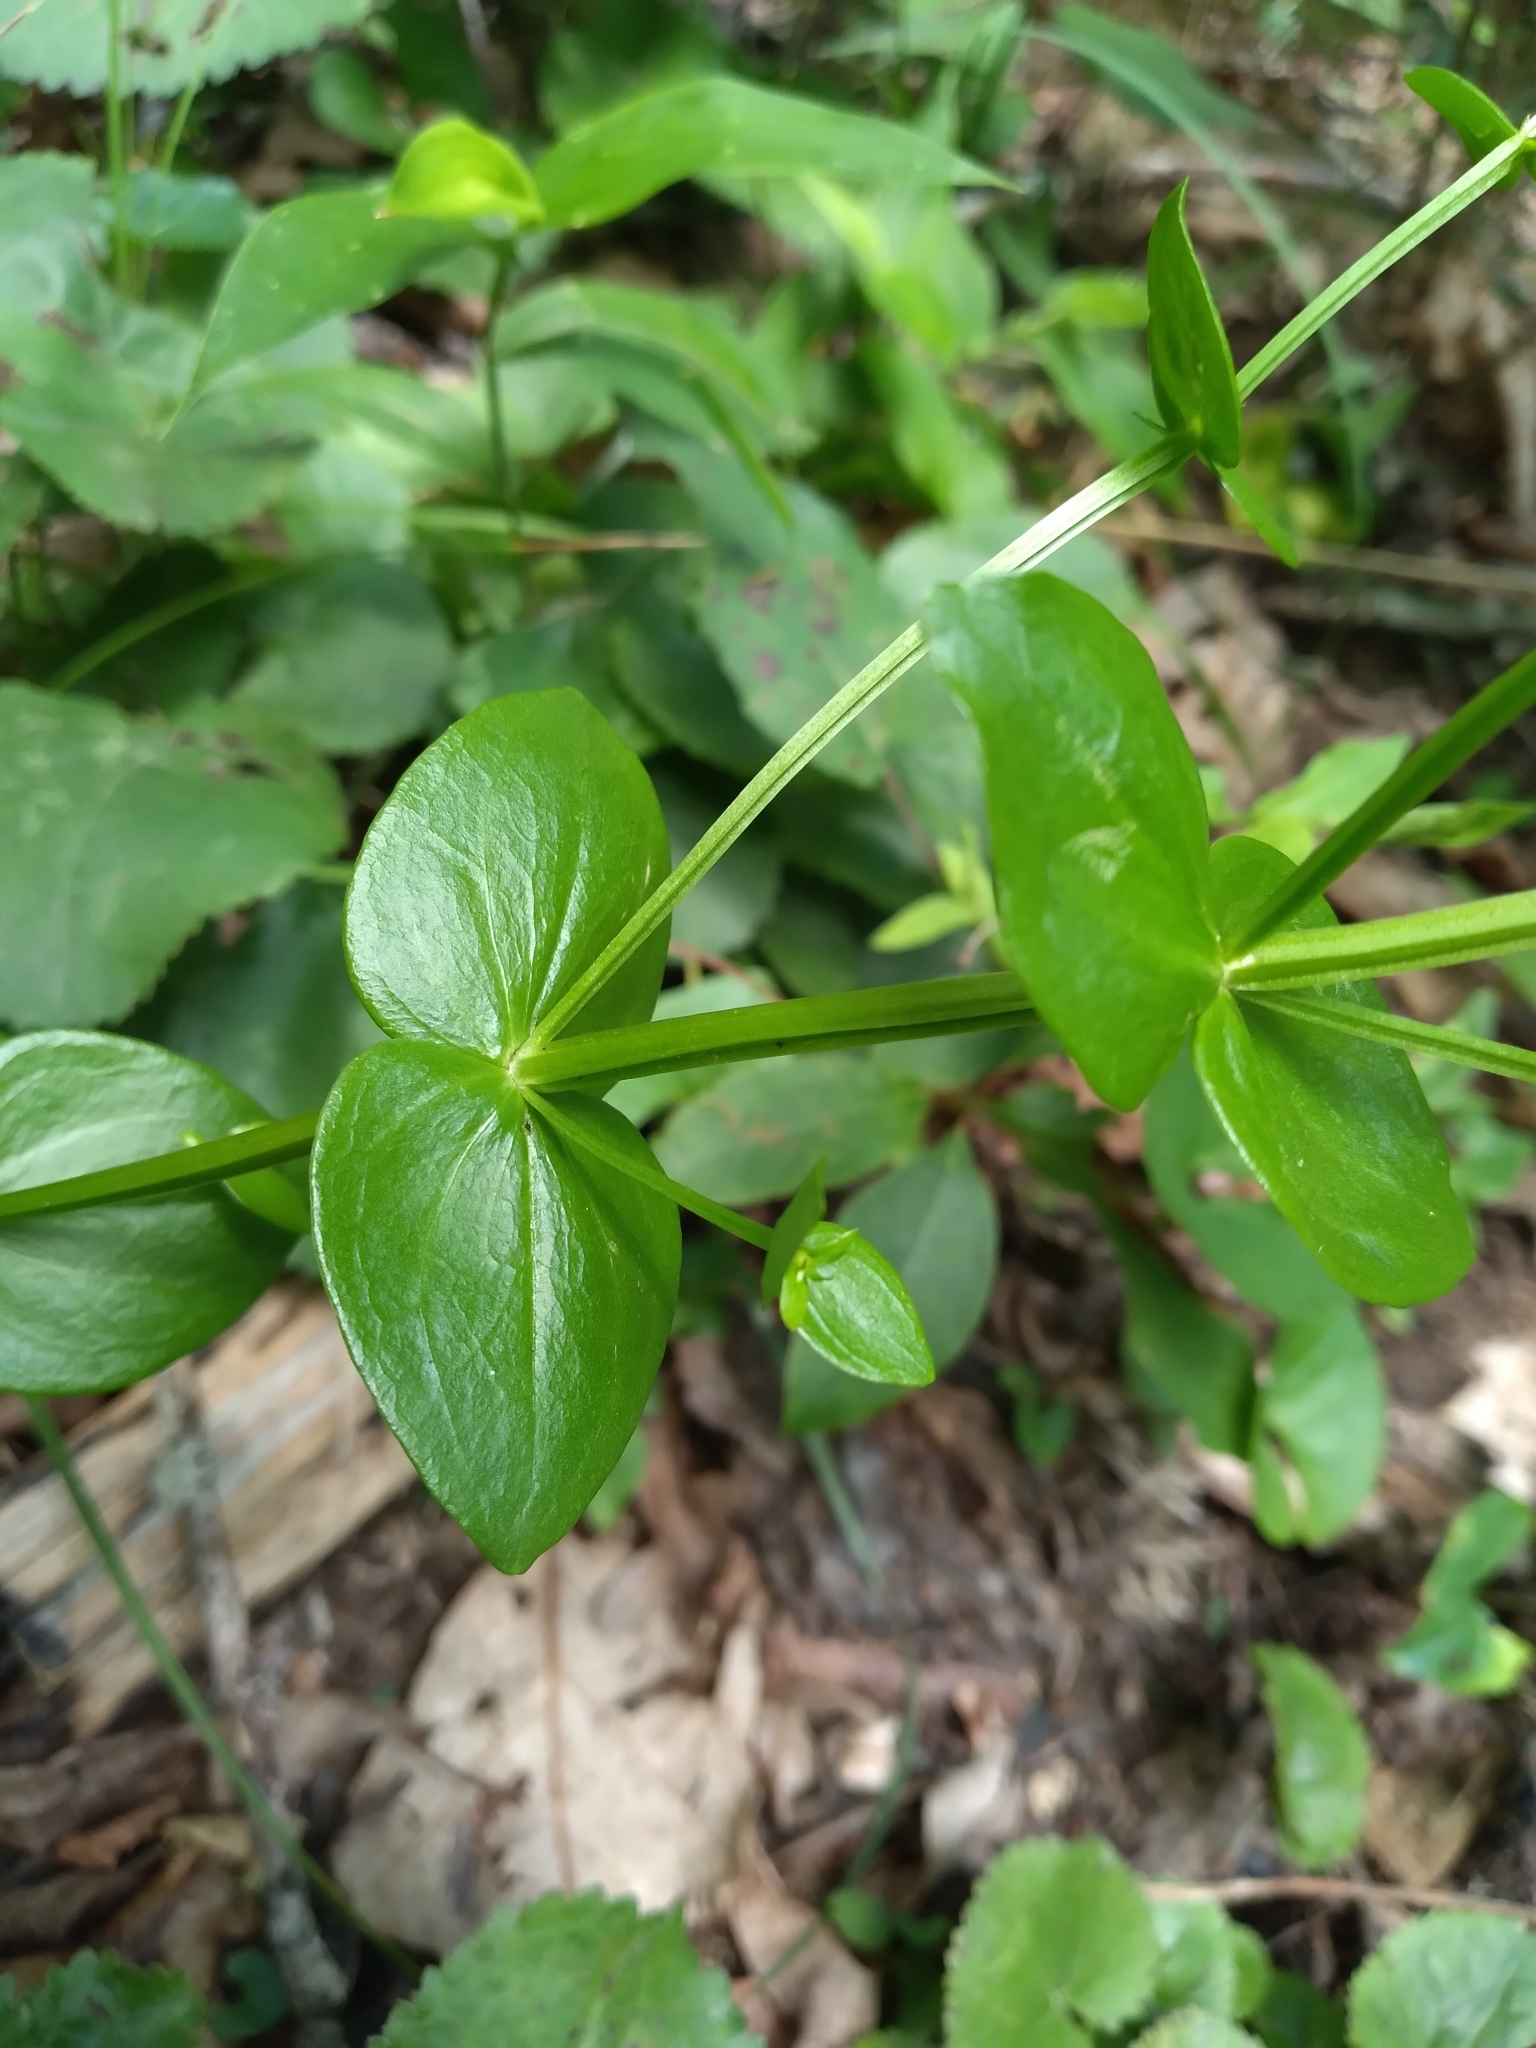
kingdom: Plantae
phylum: Tracheophyta
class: Magnoliopsida
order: Gentianales
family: Gentianaceae
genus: Sabatia
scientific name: Sabatia angularis
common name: Rose-pink
